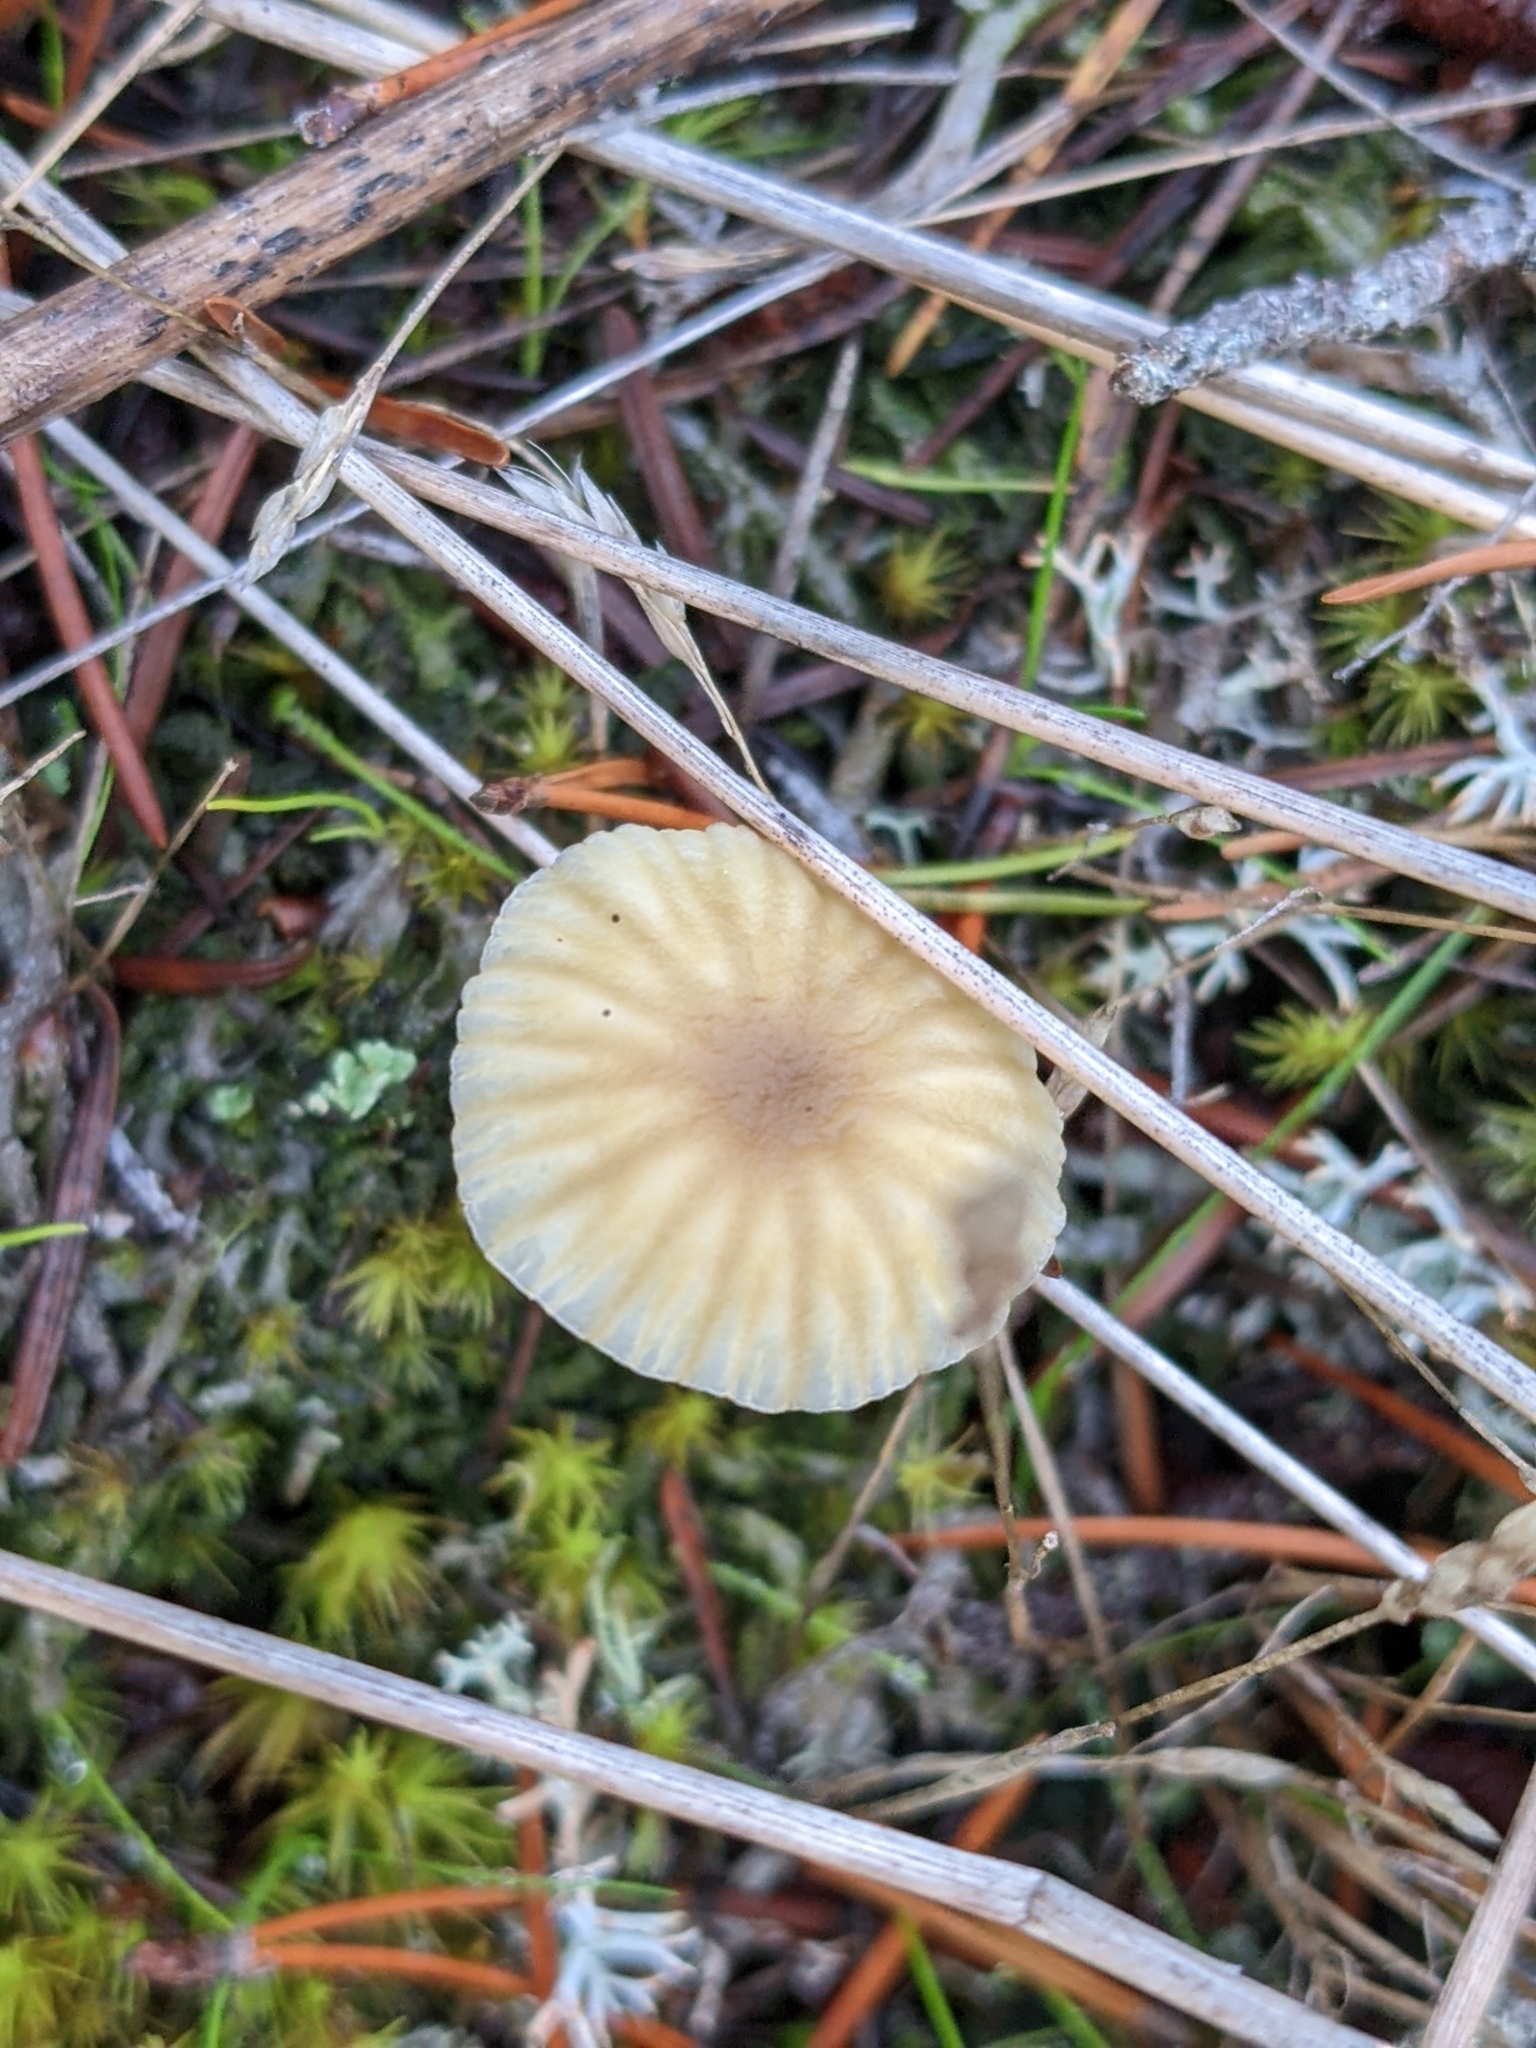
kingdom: Fungi
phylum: Basidiomycota
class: Agaricomycetes
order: Agaricales
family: Hygrophoraceae
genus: Lichenomphalia
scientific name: Lichenomphalia
